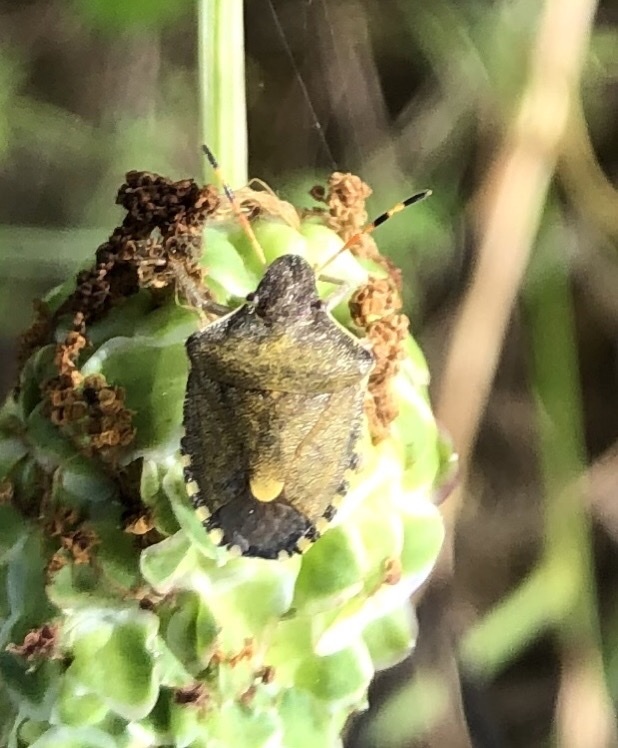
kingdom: Animalia
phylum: Arthropoda
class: Insecta
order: Hemiptera
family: Pentatomidae
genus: Holcostethus
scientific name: Holcostethus strictus
